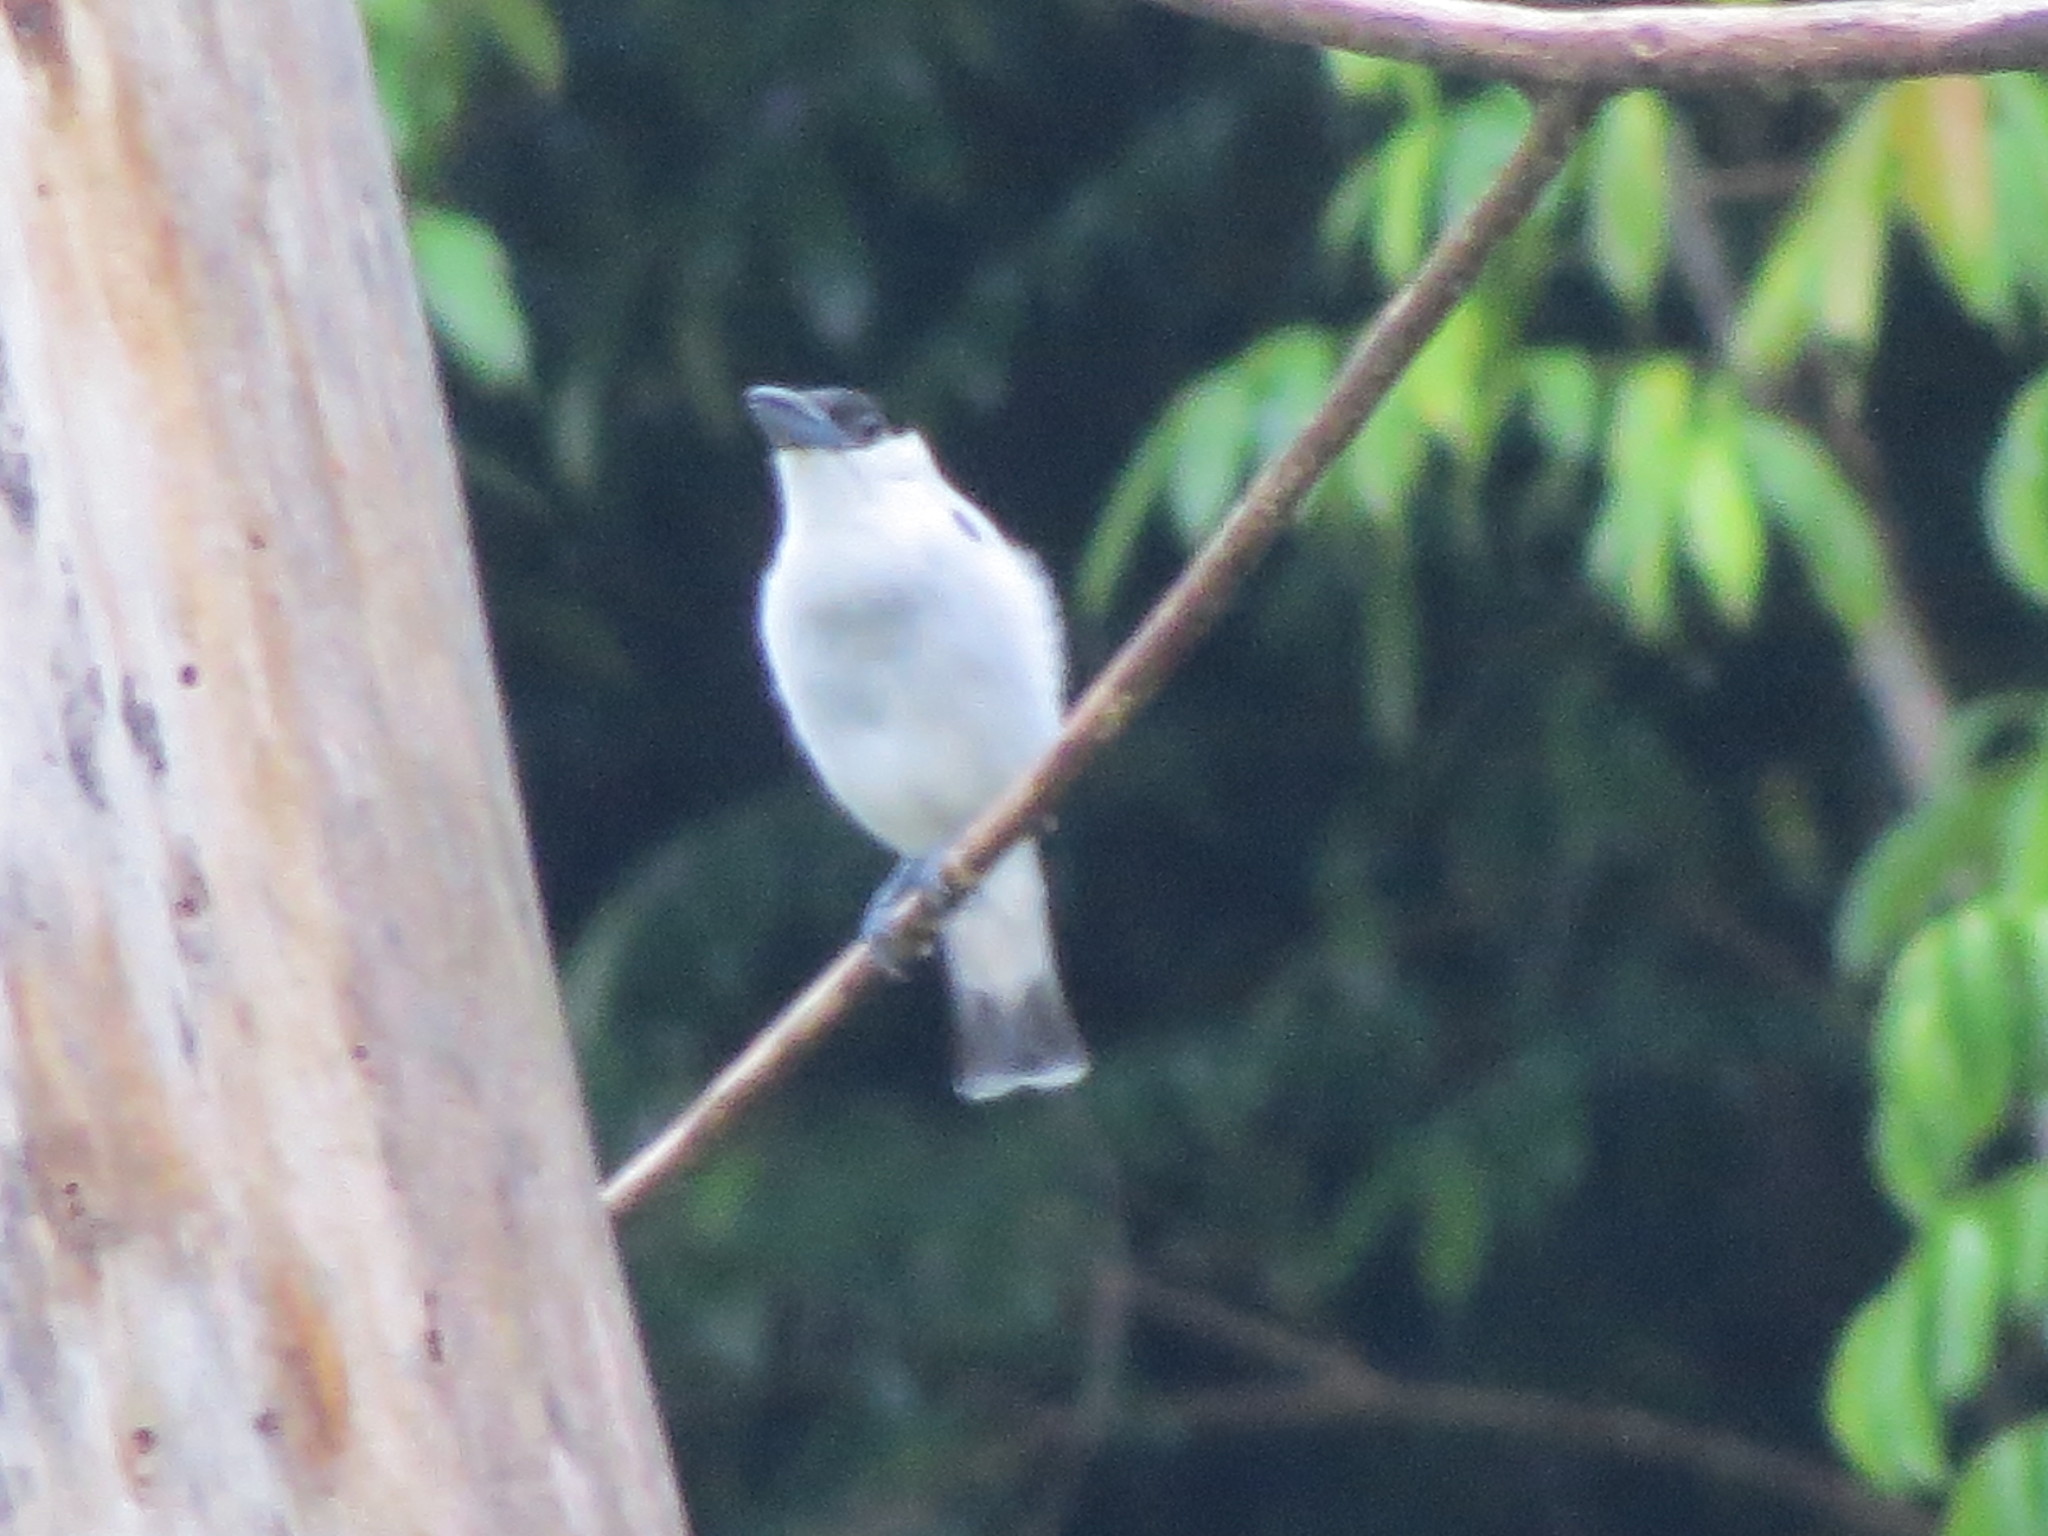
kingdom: Animalia
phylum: Chordata
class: Aves
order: Passeriformes
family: Cotingidae
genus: Tityra
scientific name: Tityra inquisitor
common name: Black-crowned tityra
